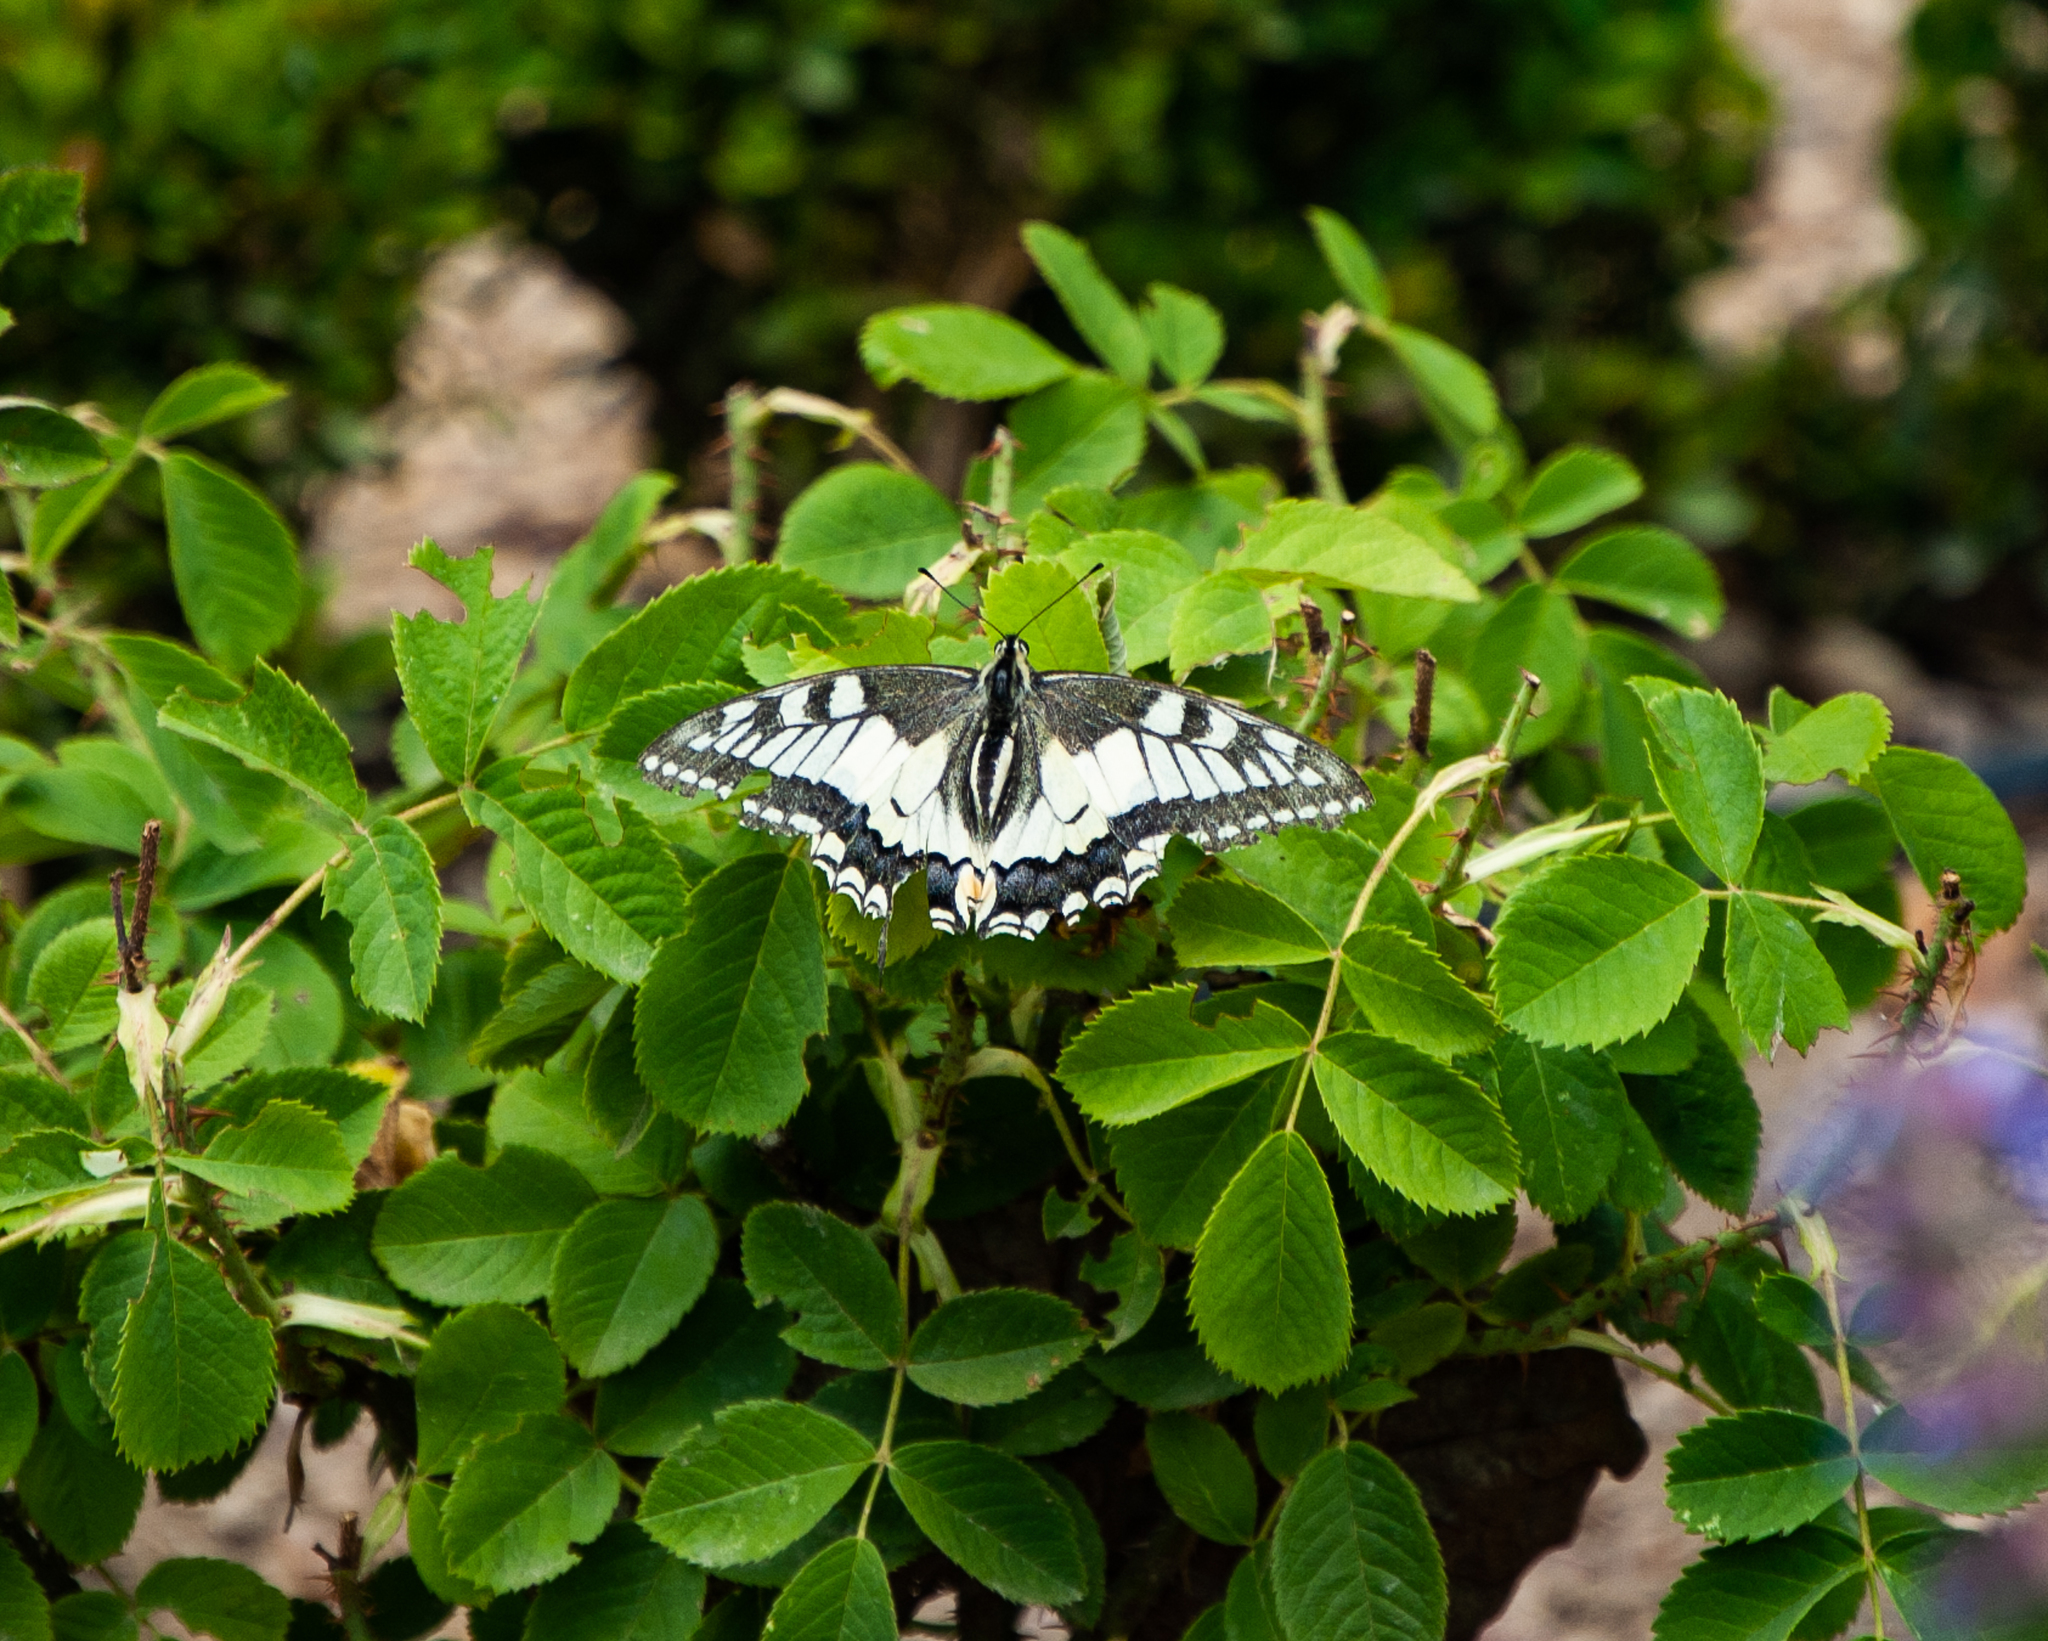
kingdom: Animalia
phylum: Arthropoda
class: Insecta
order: Lepidoptera
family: Papilionidae
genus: Papilio
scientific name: Papilio machaon
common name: Swallowtail
